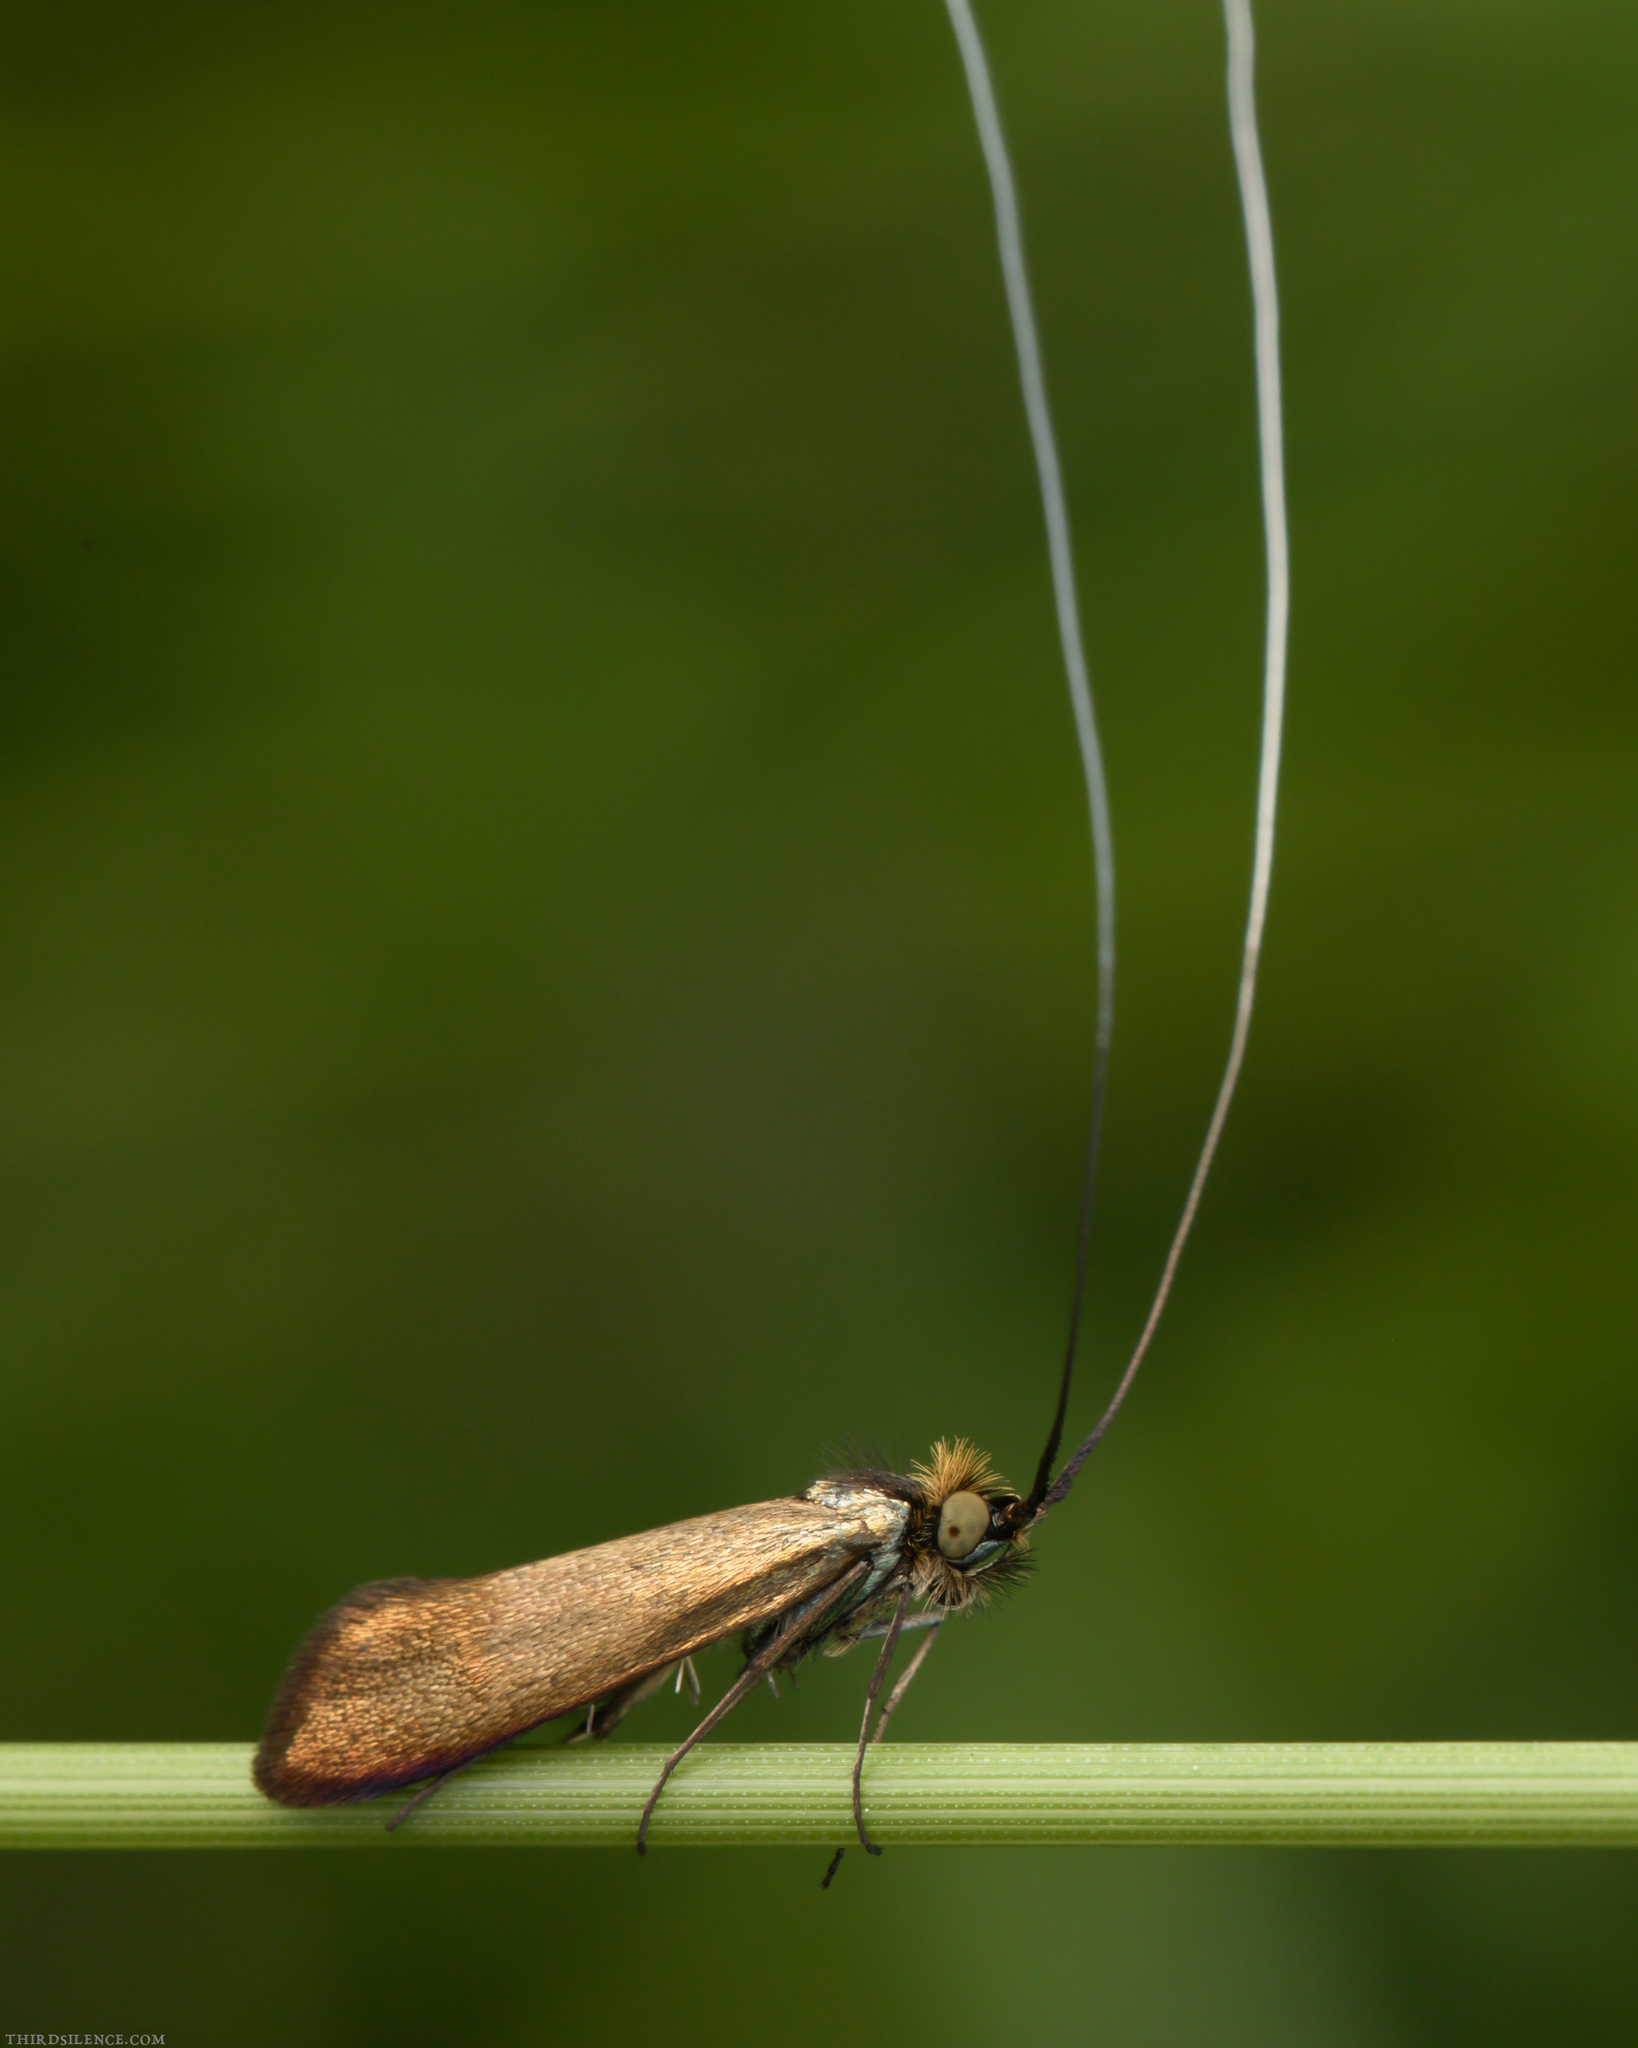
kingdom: Animalia
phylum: Arthropoda
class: Insecta
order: Lepidoptera
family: Adelidae
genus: Nemophora
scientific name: Nemophora metallica
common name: Brassy long-horn
